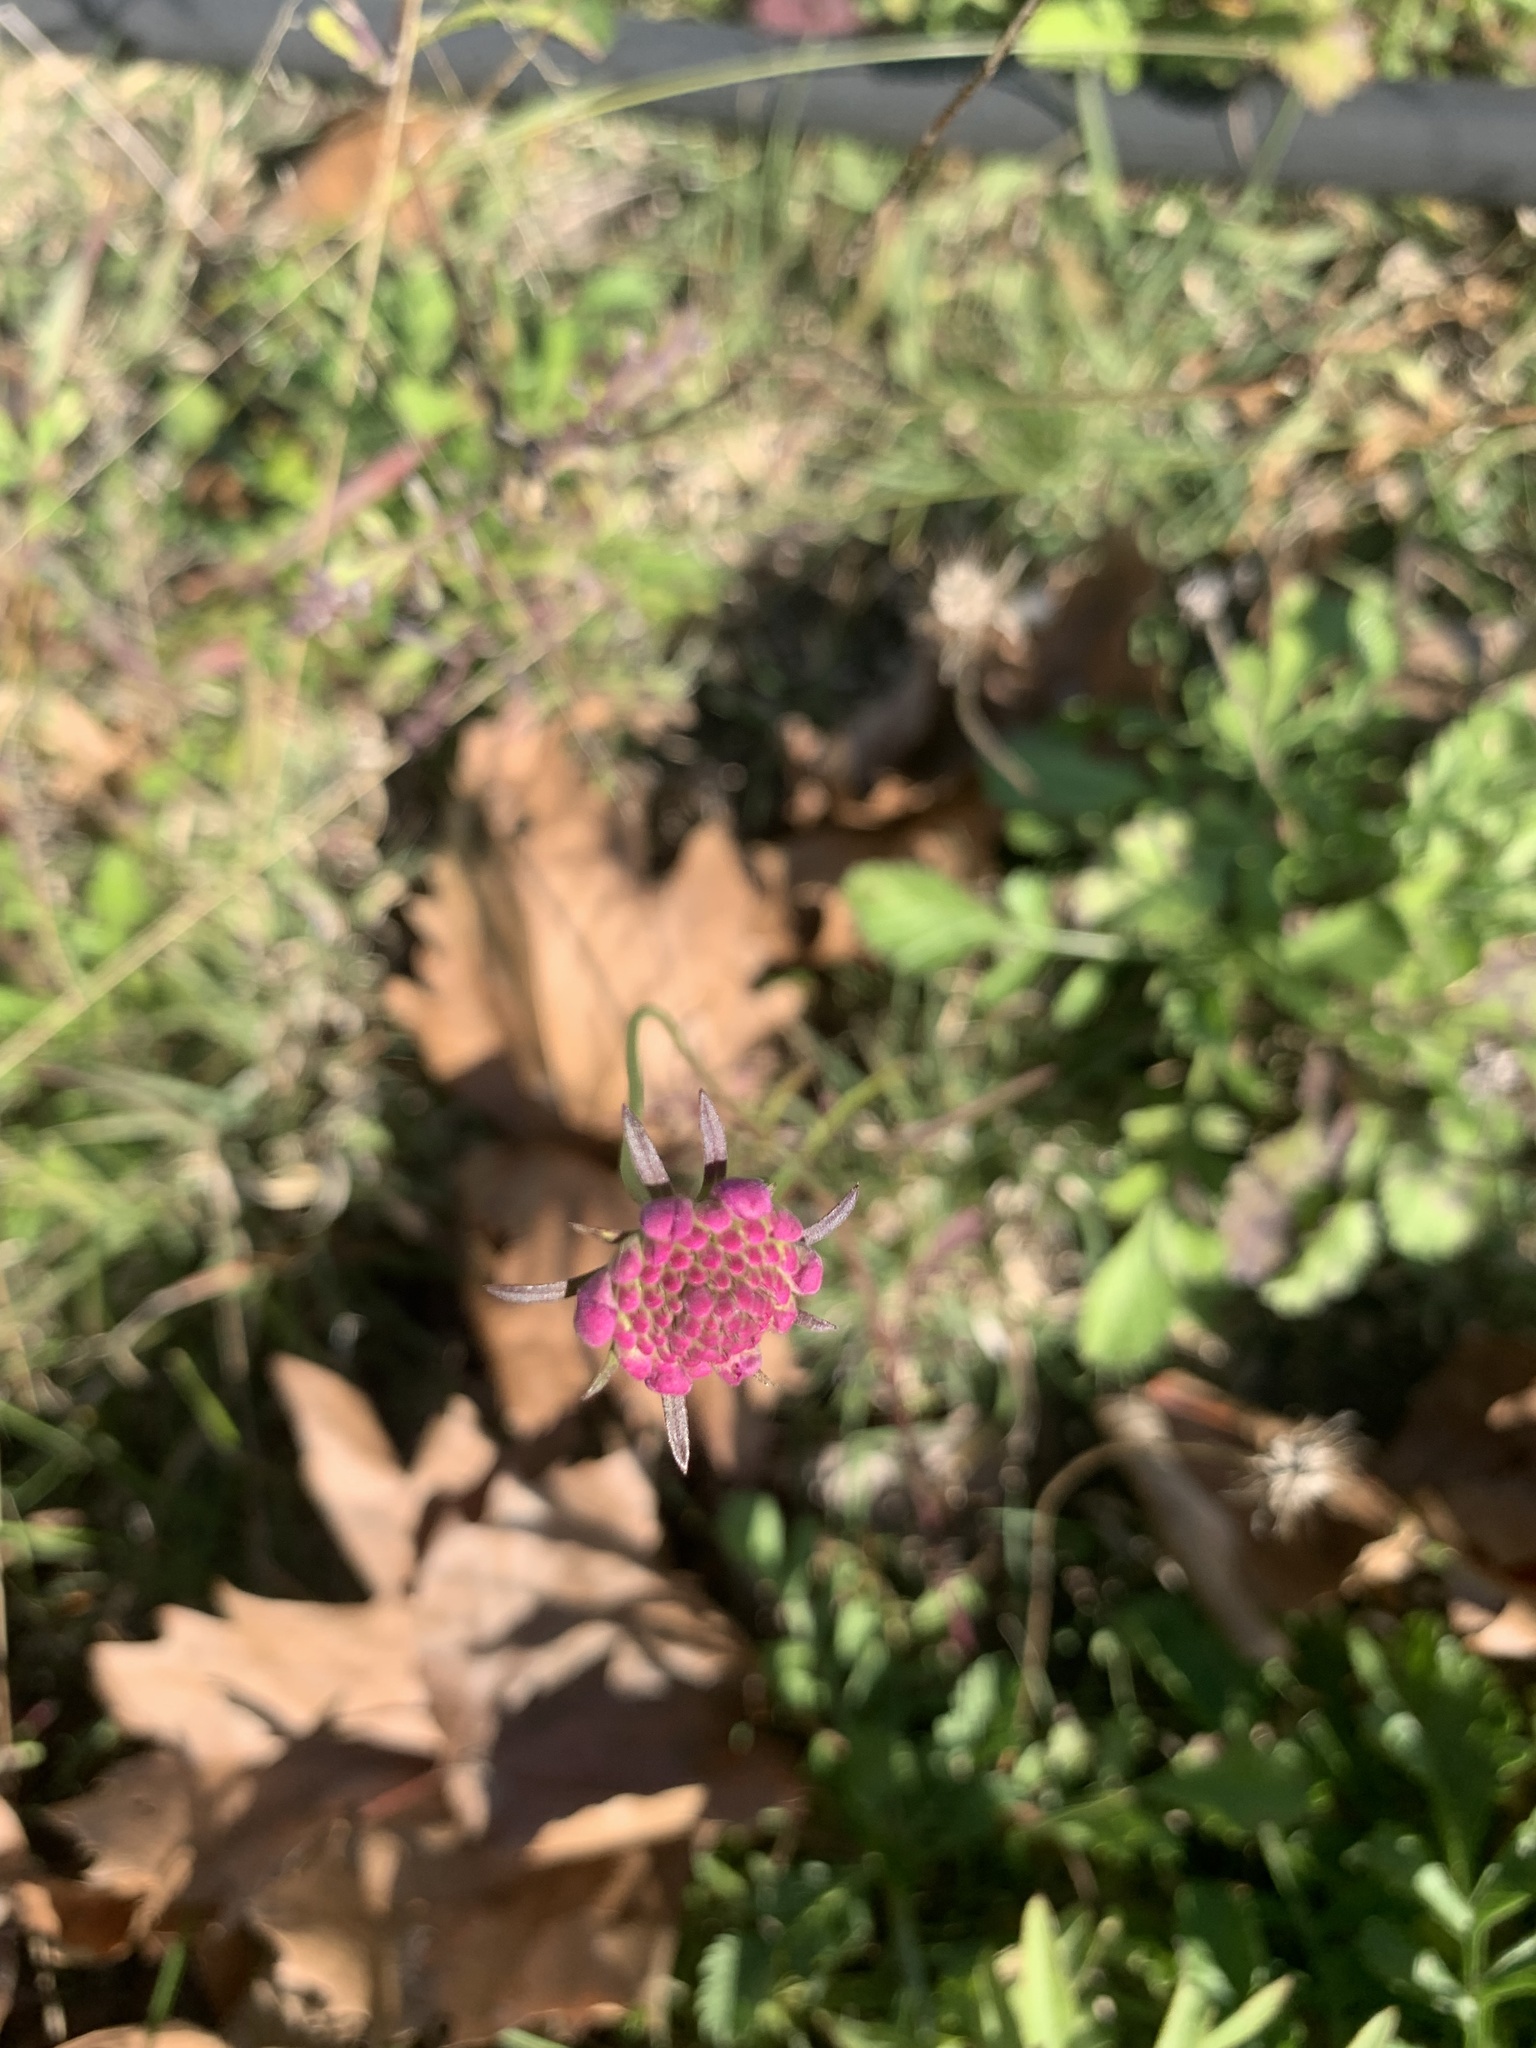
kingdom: Plantae
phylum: Tracheophyta
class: Magnoliopsida
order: Dipsacales
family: Caprifoliaceae
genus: Sixalix
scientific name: Sixalix atropurpurea
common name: Sweet scabious
